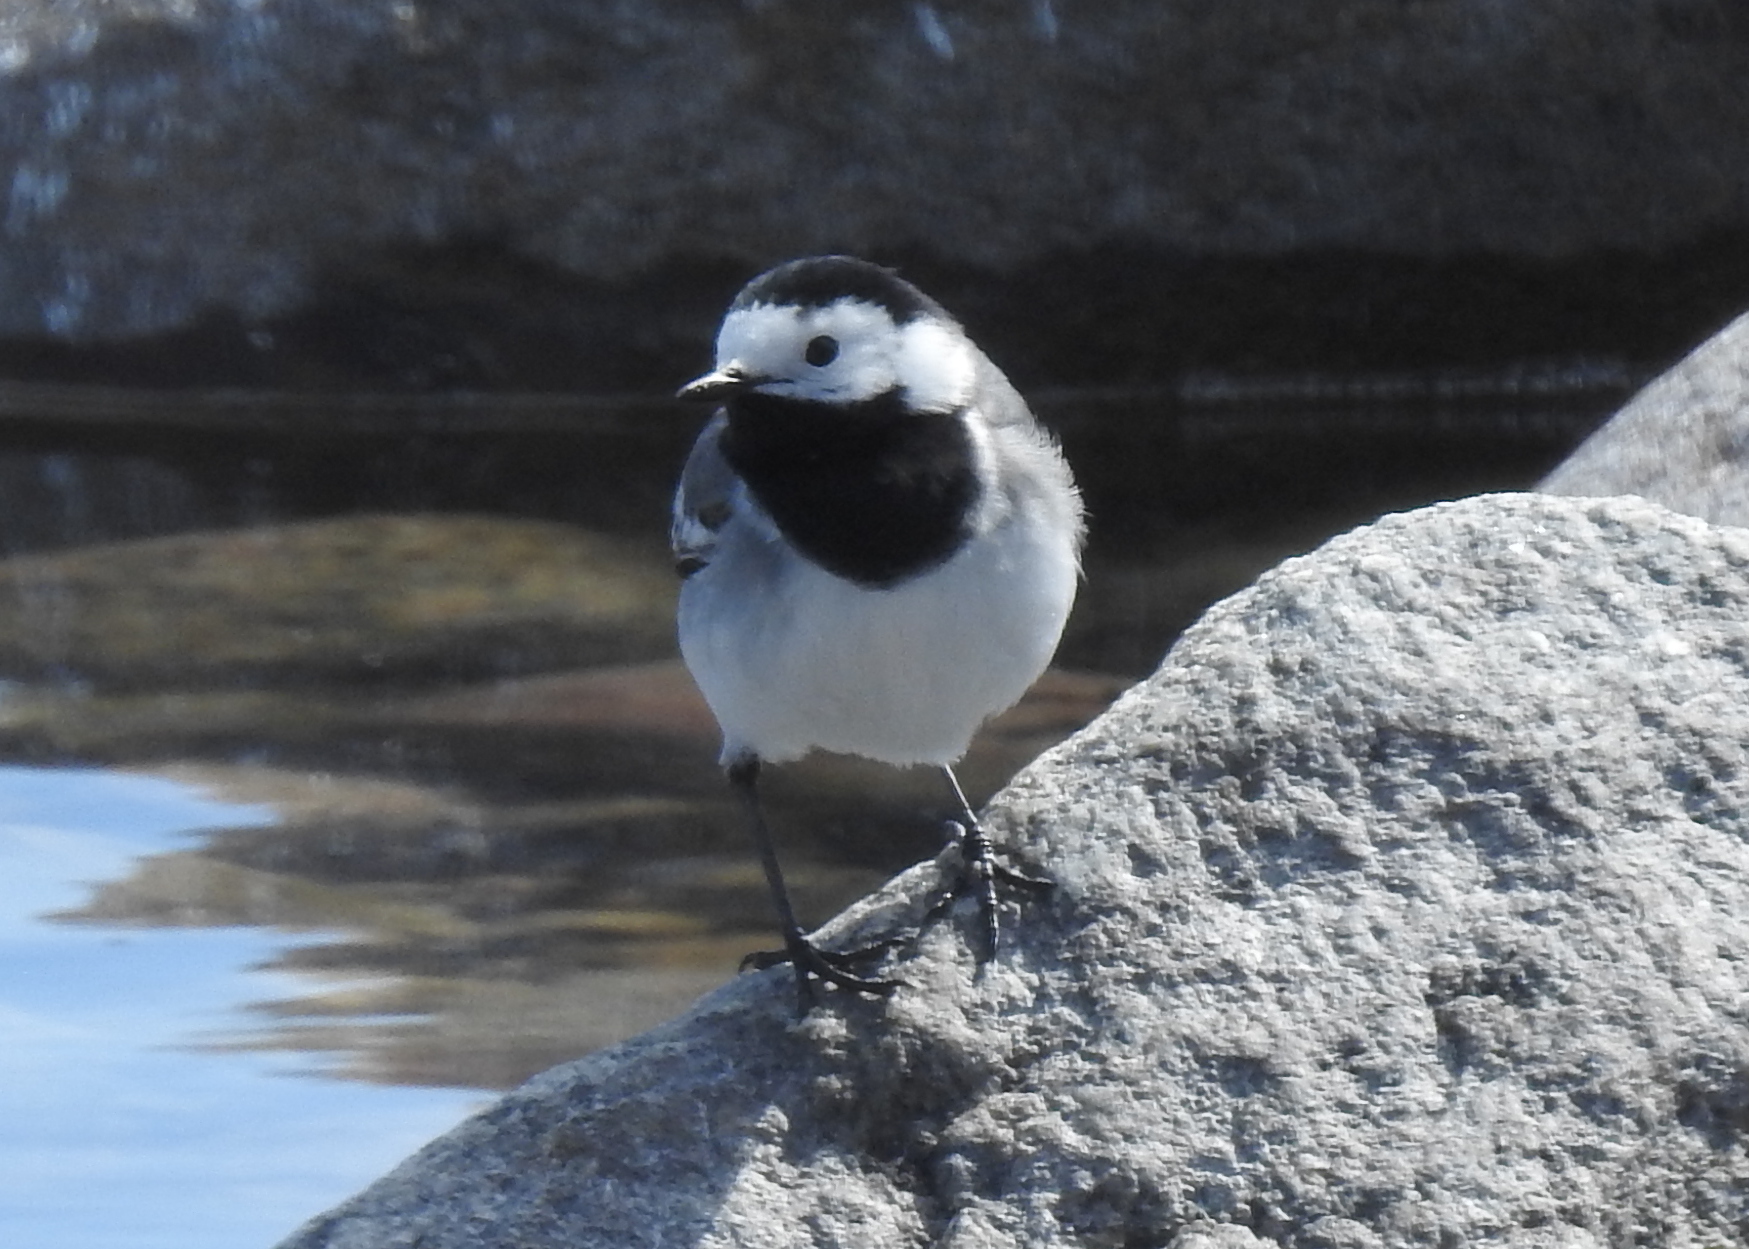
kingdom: Animalia
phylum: Chordata
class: Aves
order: Passeriformes
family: Motacillidae
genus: Motacilla
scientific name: Motacilla alba
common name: White wagtail
